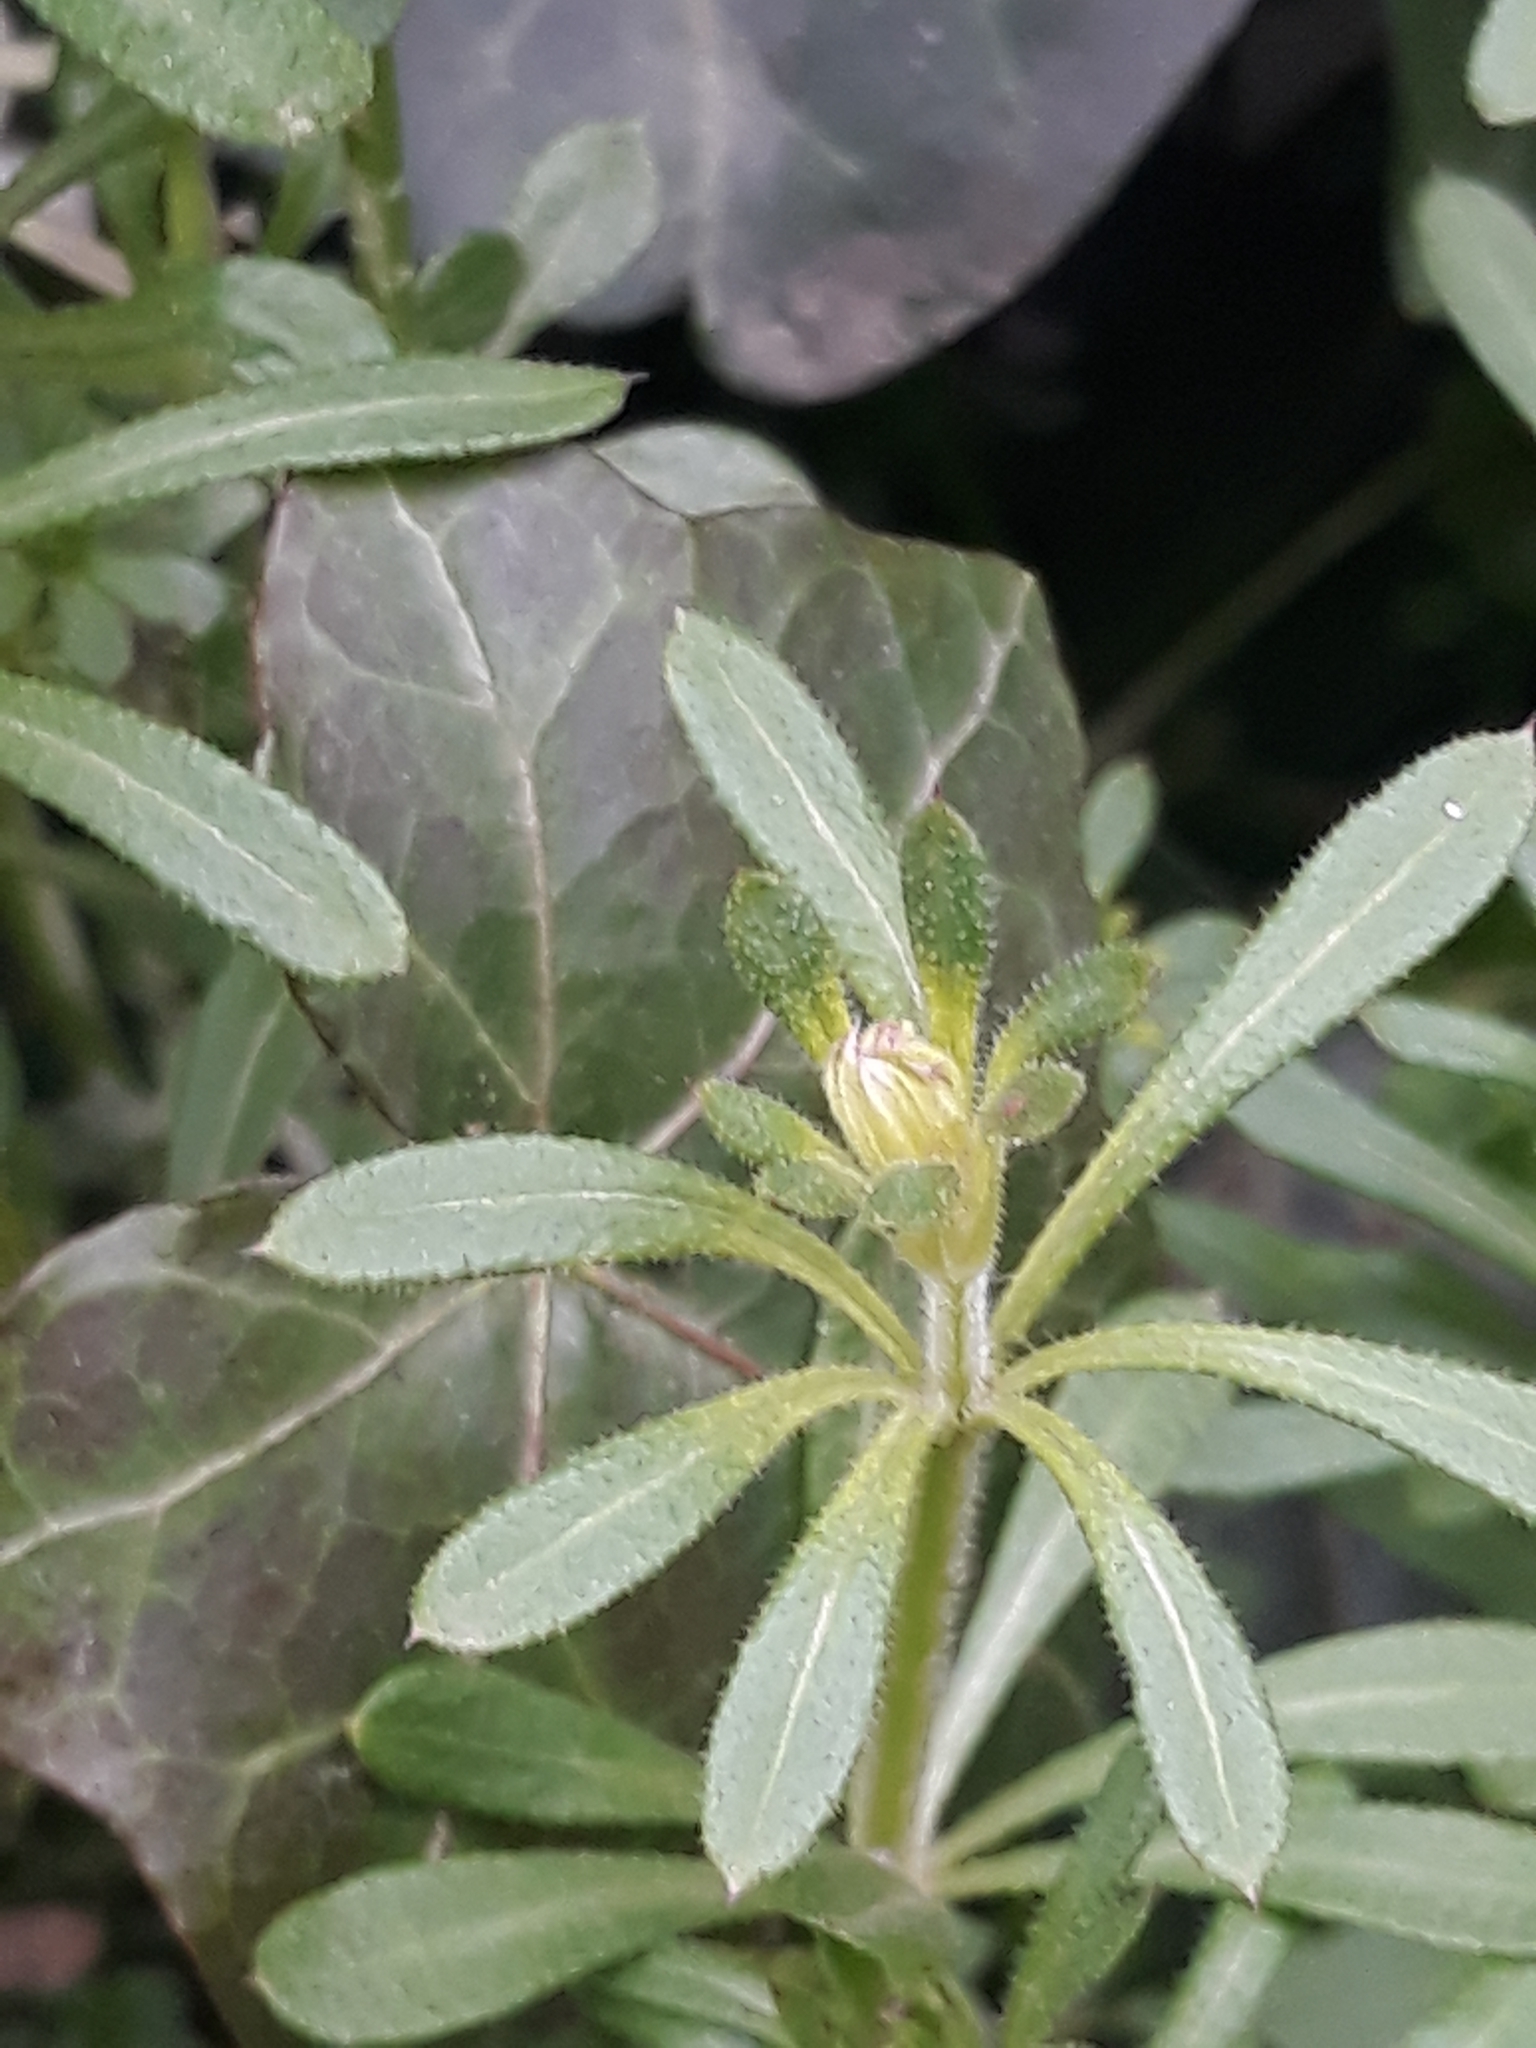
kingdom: Plantae
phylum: Tracheophyta
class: Magnoliopsida
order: Gentianales
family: Rubiaceae
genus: Galium
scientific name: Galium aparine
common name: Cleavers
